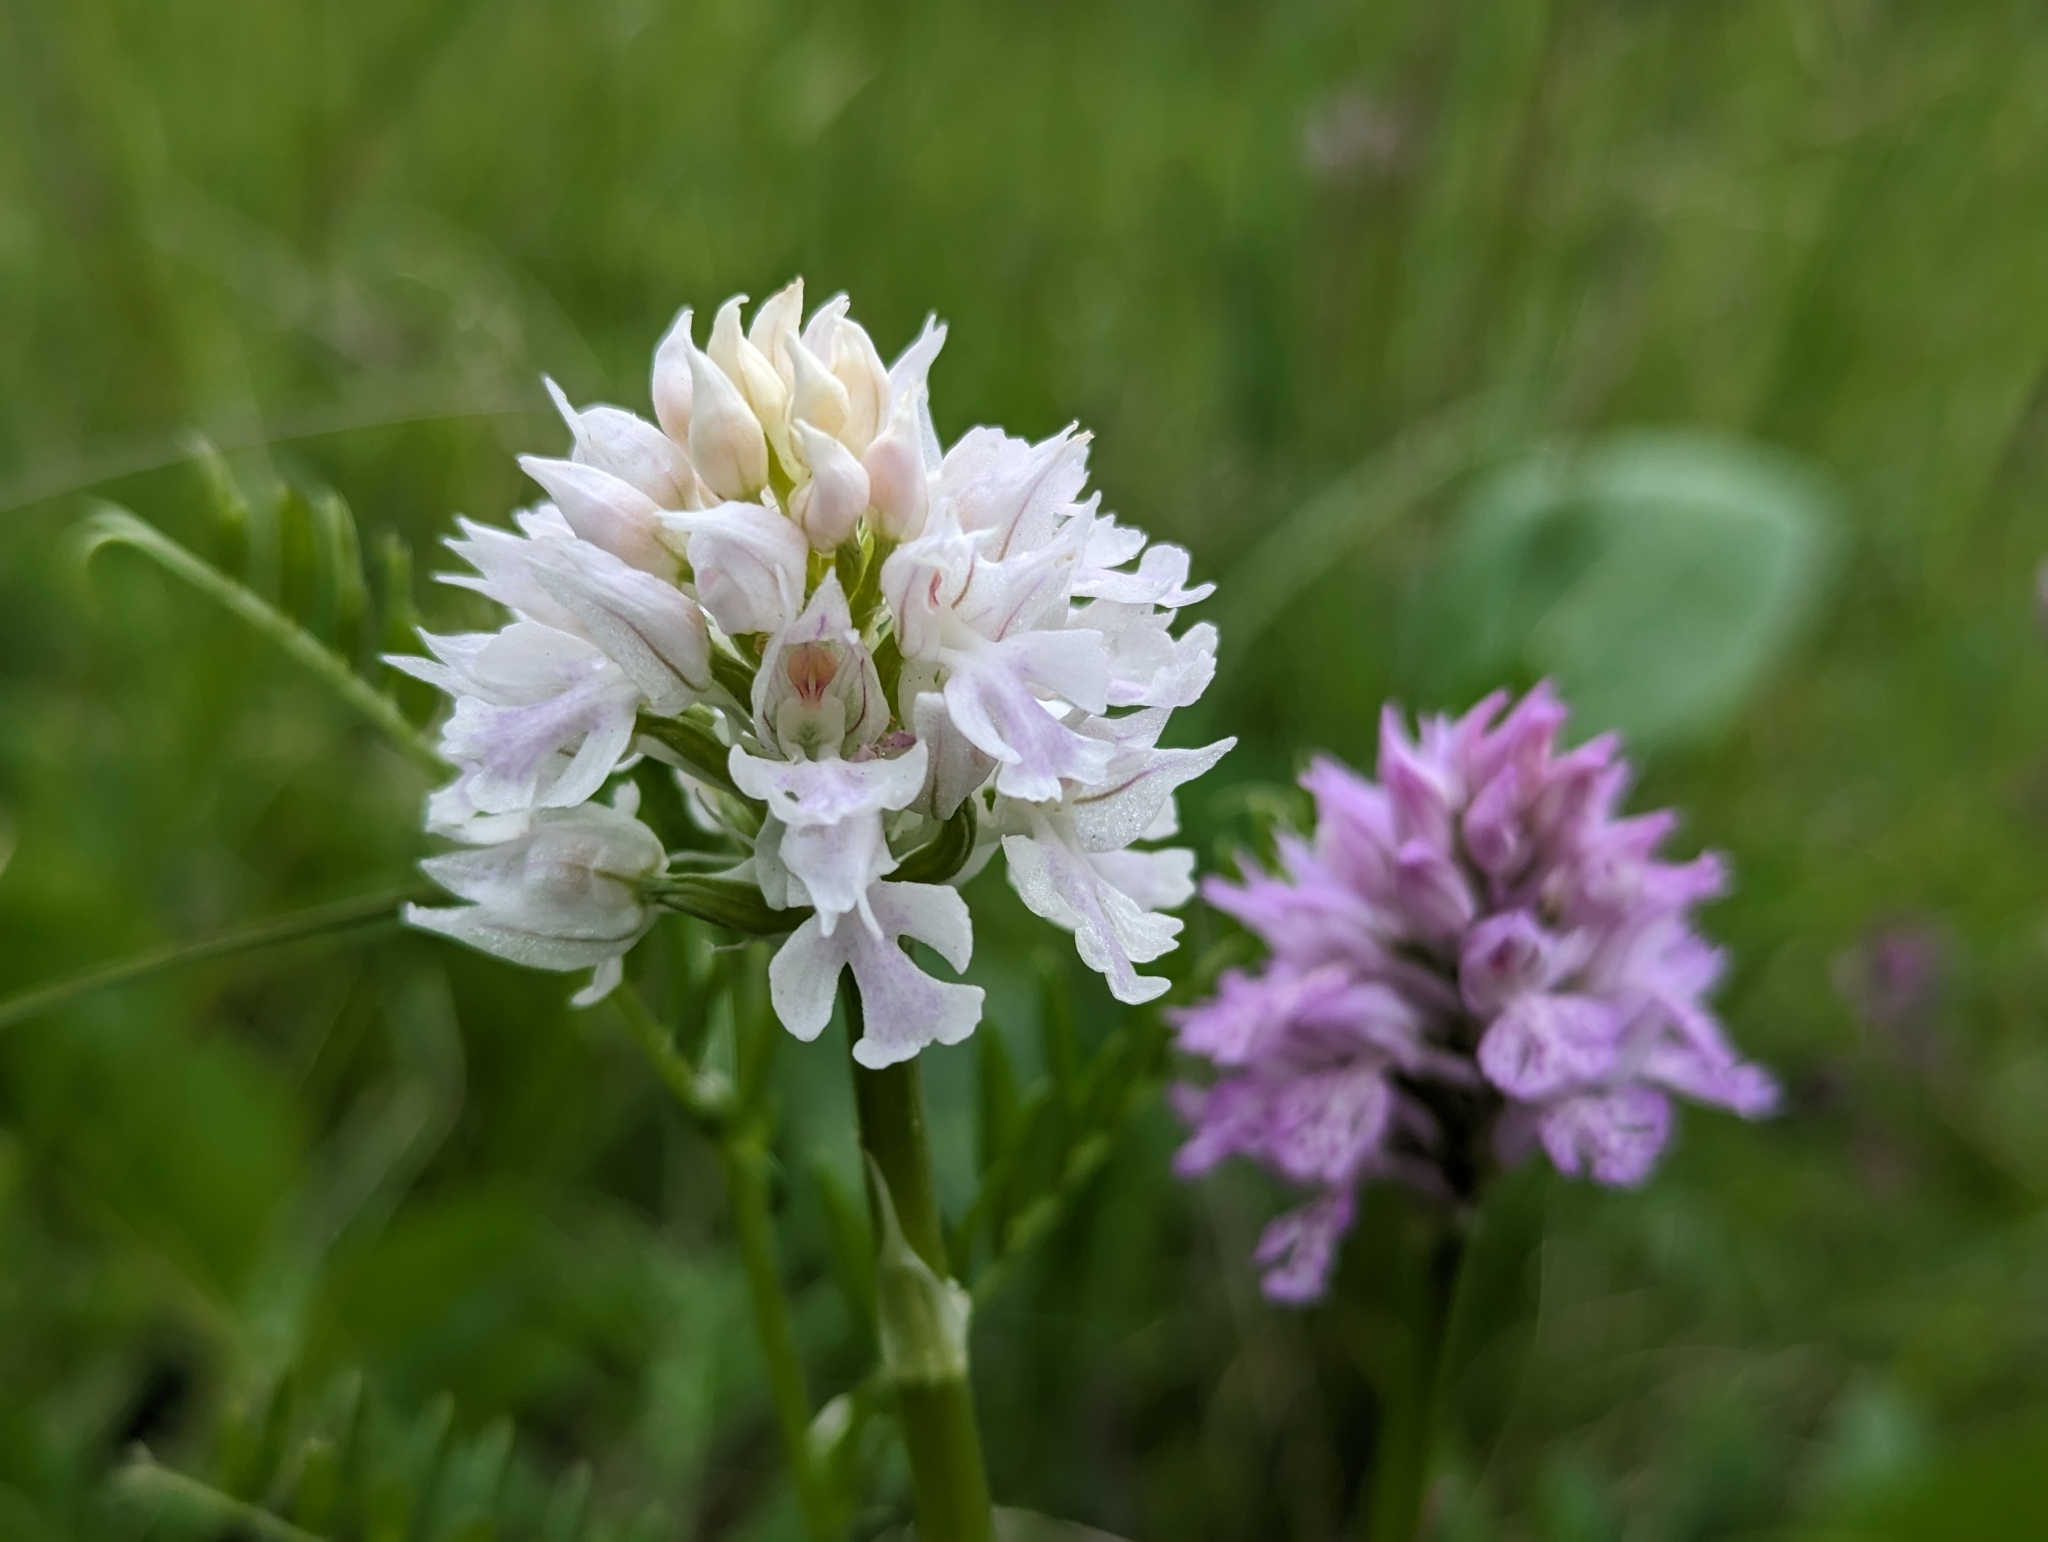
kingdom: Plantae
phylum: Tracheophyta
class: Liliopsida
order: Asparagales
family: Orchidaceae
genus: Neotinea
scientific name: Neotinea tridentata
